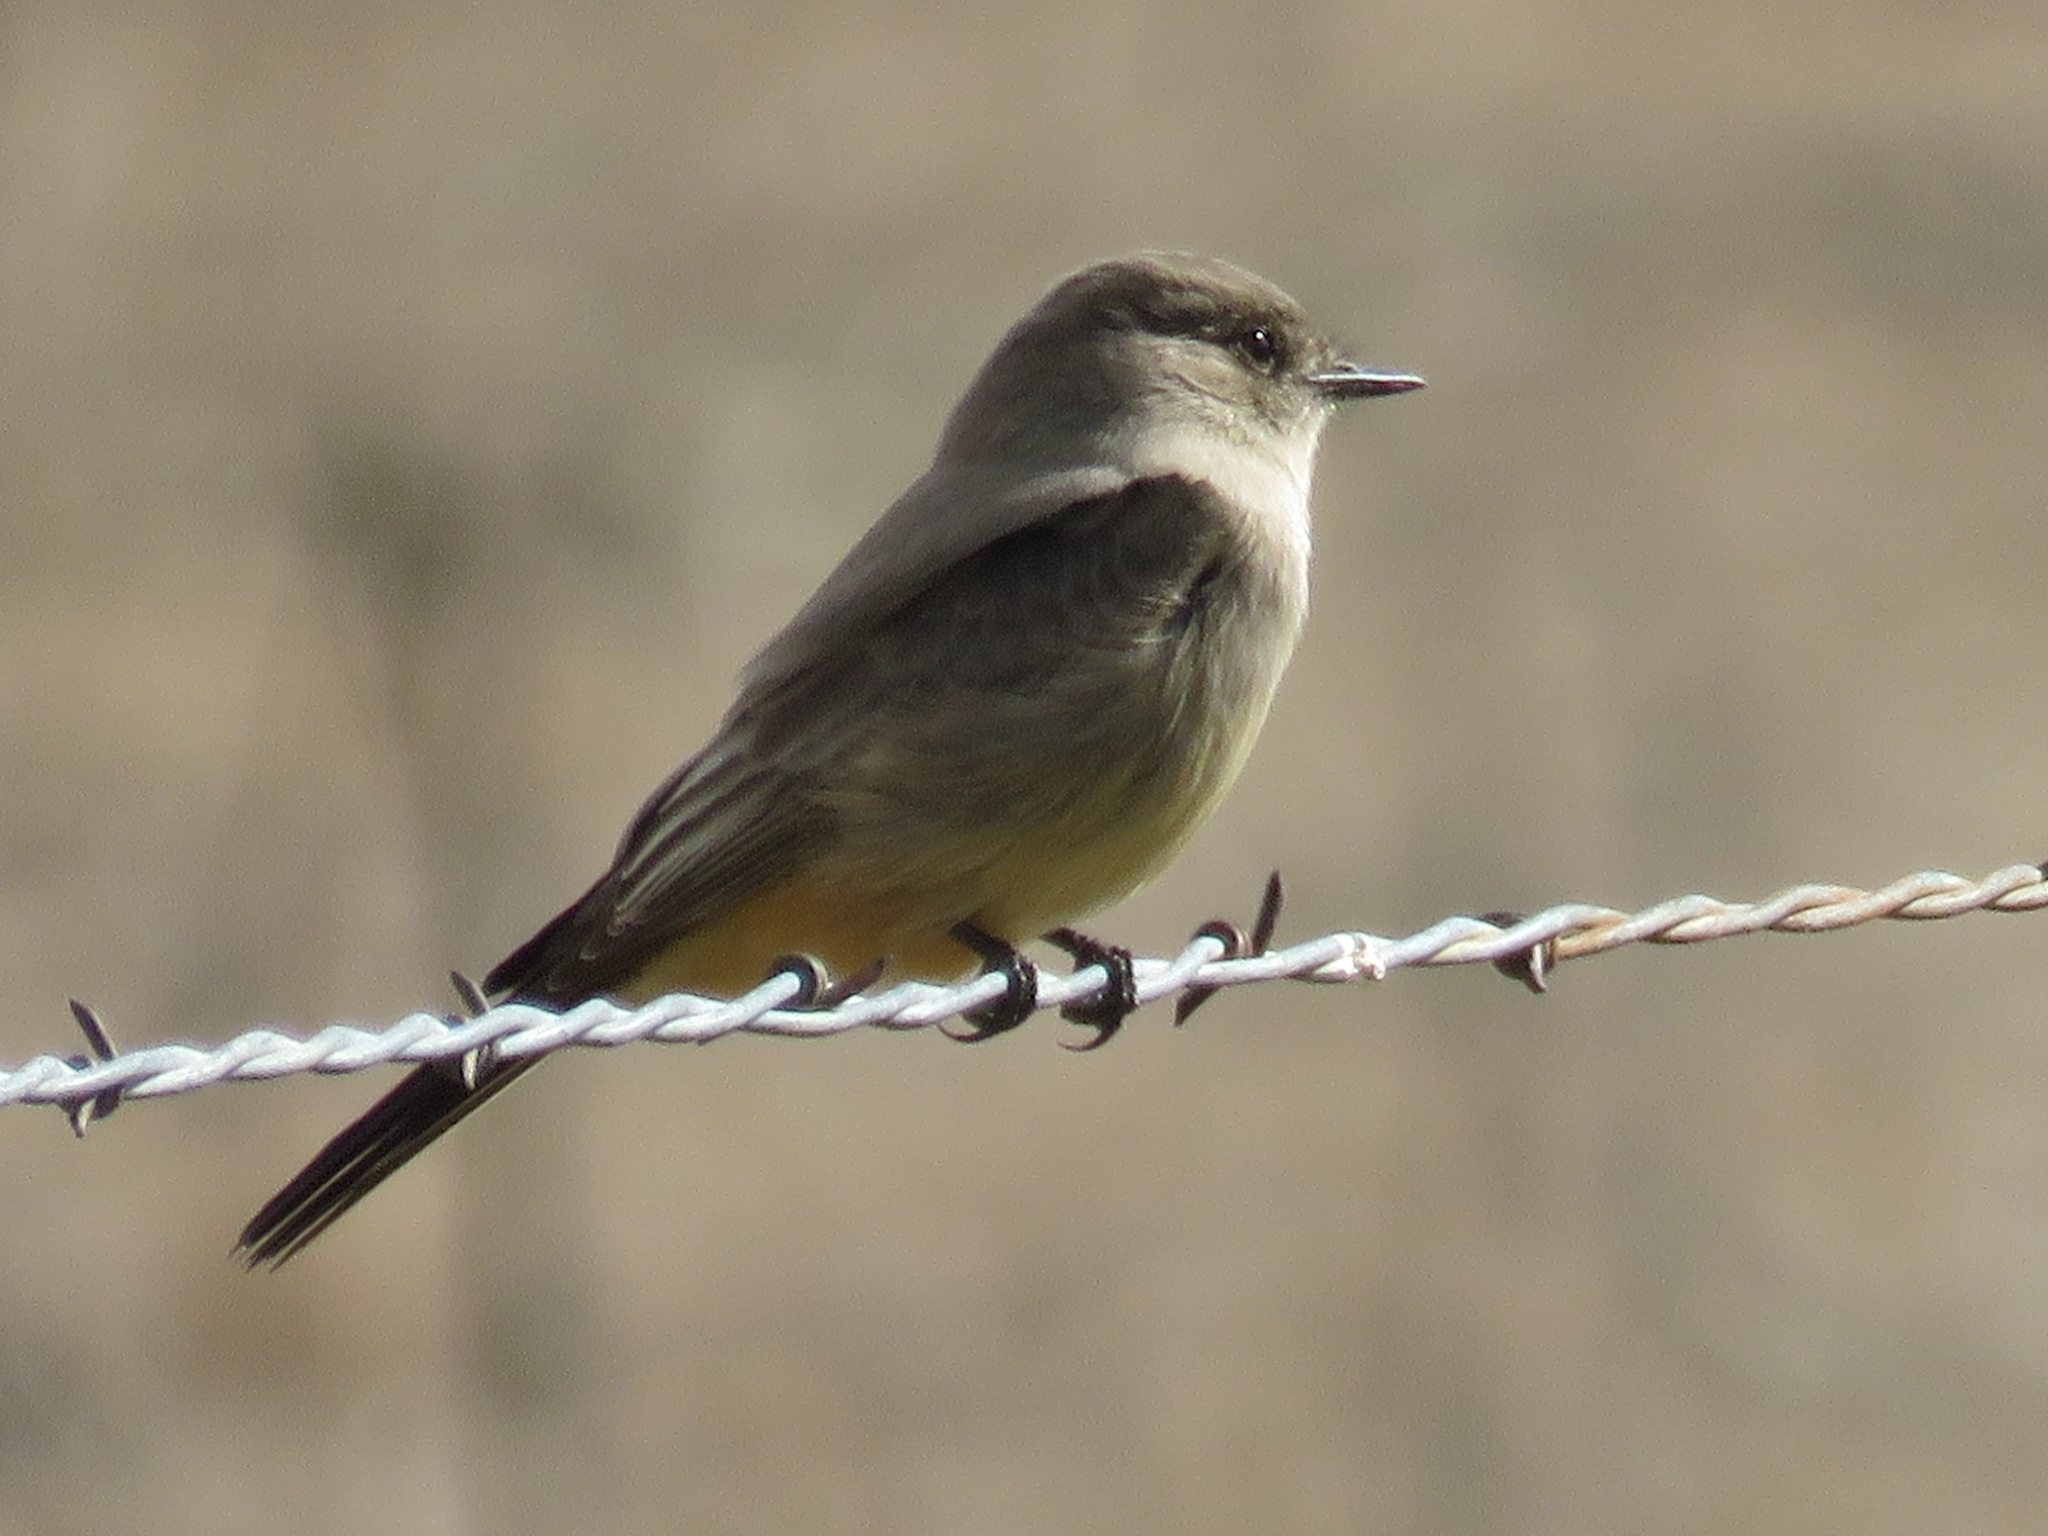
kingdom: Animalia
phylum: Chordata
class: Aves
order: Passeriformes
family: Tyrannidae
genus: Sayornis
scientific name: Sayornis saya
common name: Say's phoebe
